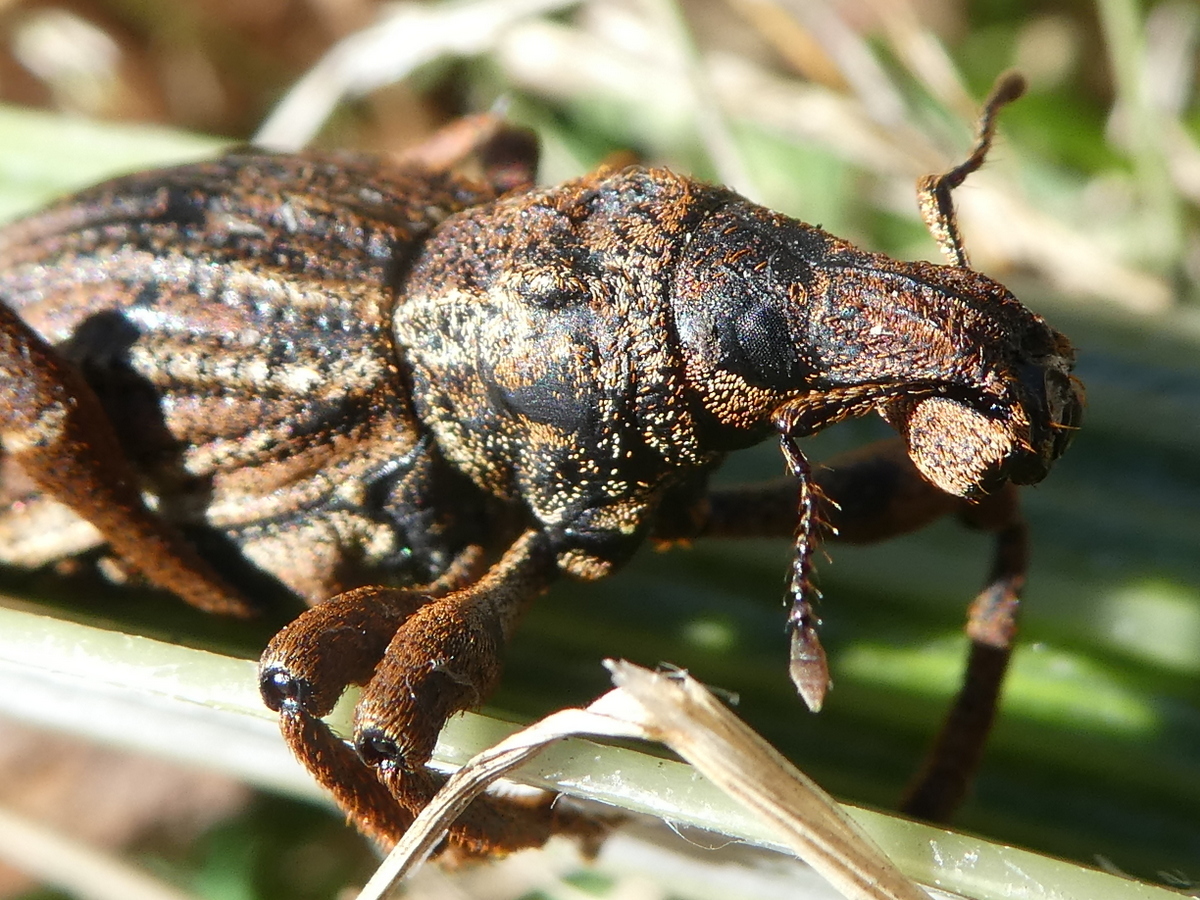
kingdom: Animalia
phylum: Arthropoda
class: Insecta
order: Coleoptera
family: Curculionidae
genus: Anagotus
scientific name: Anagotus
